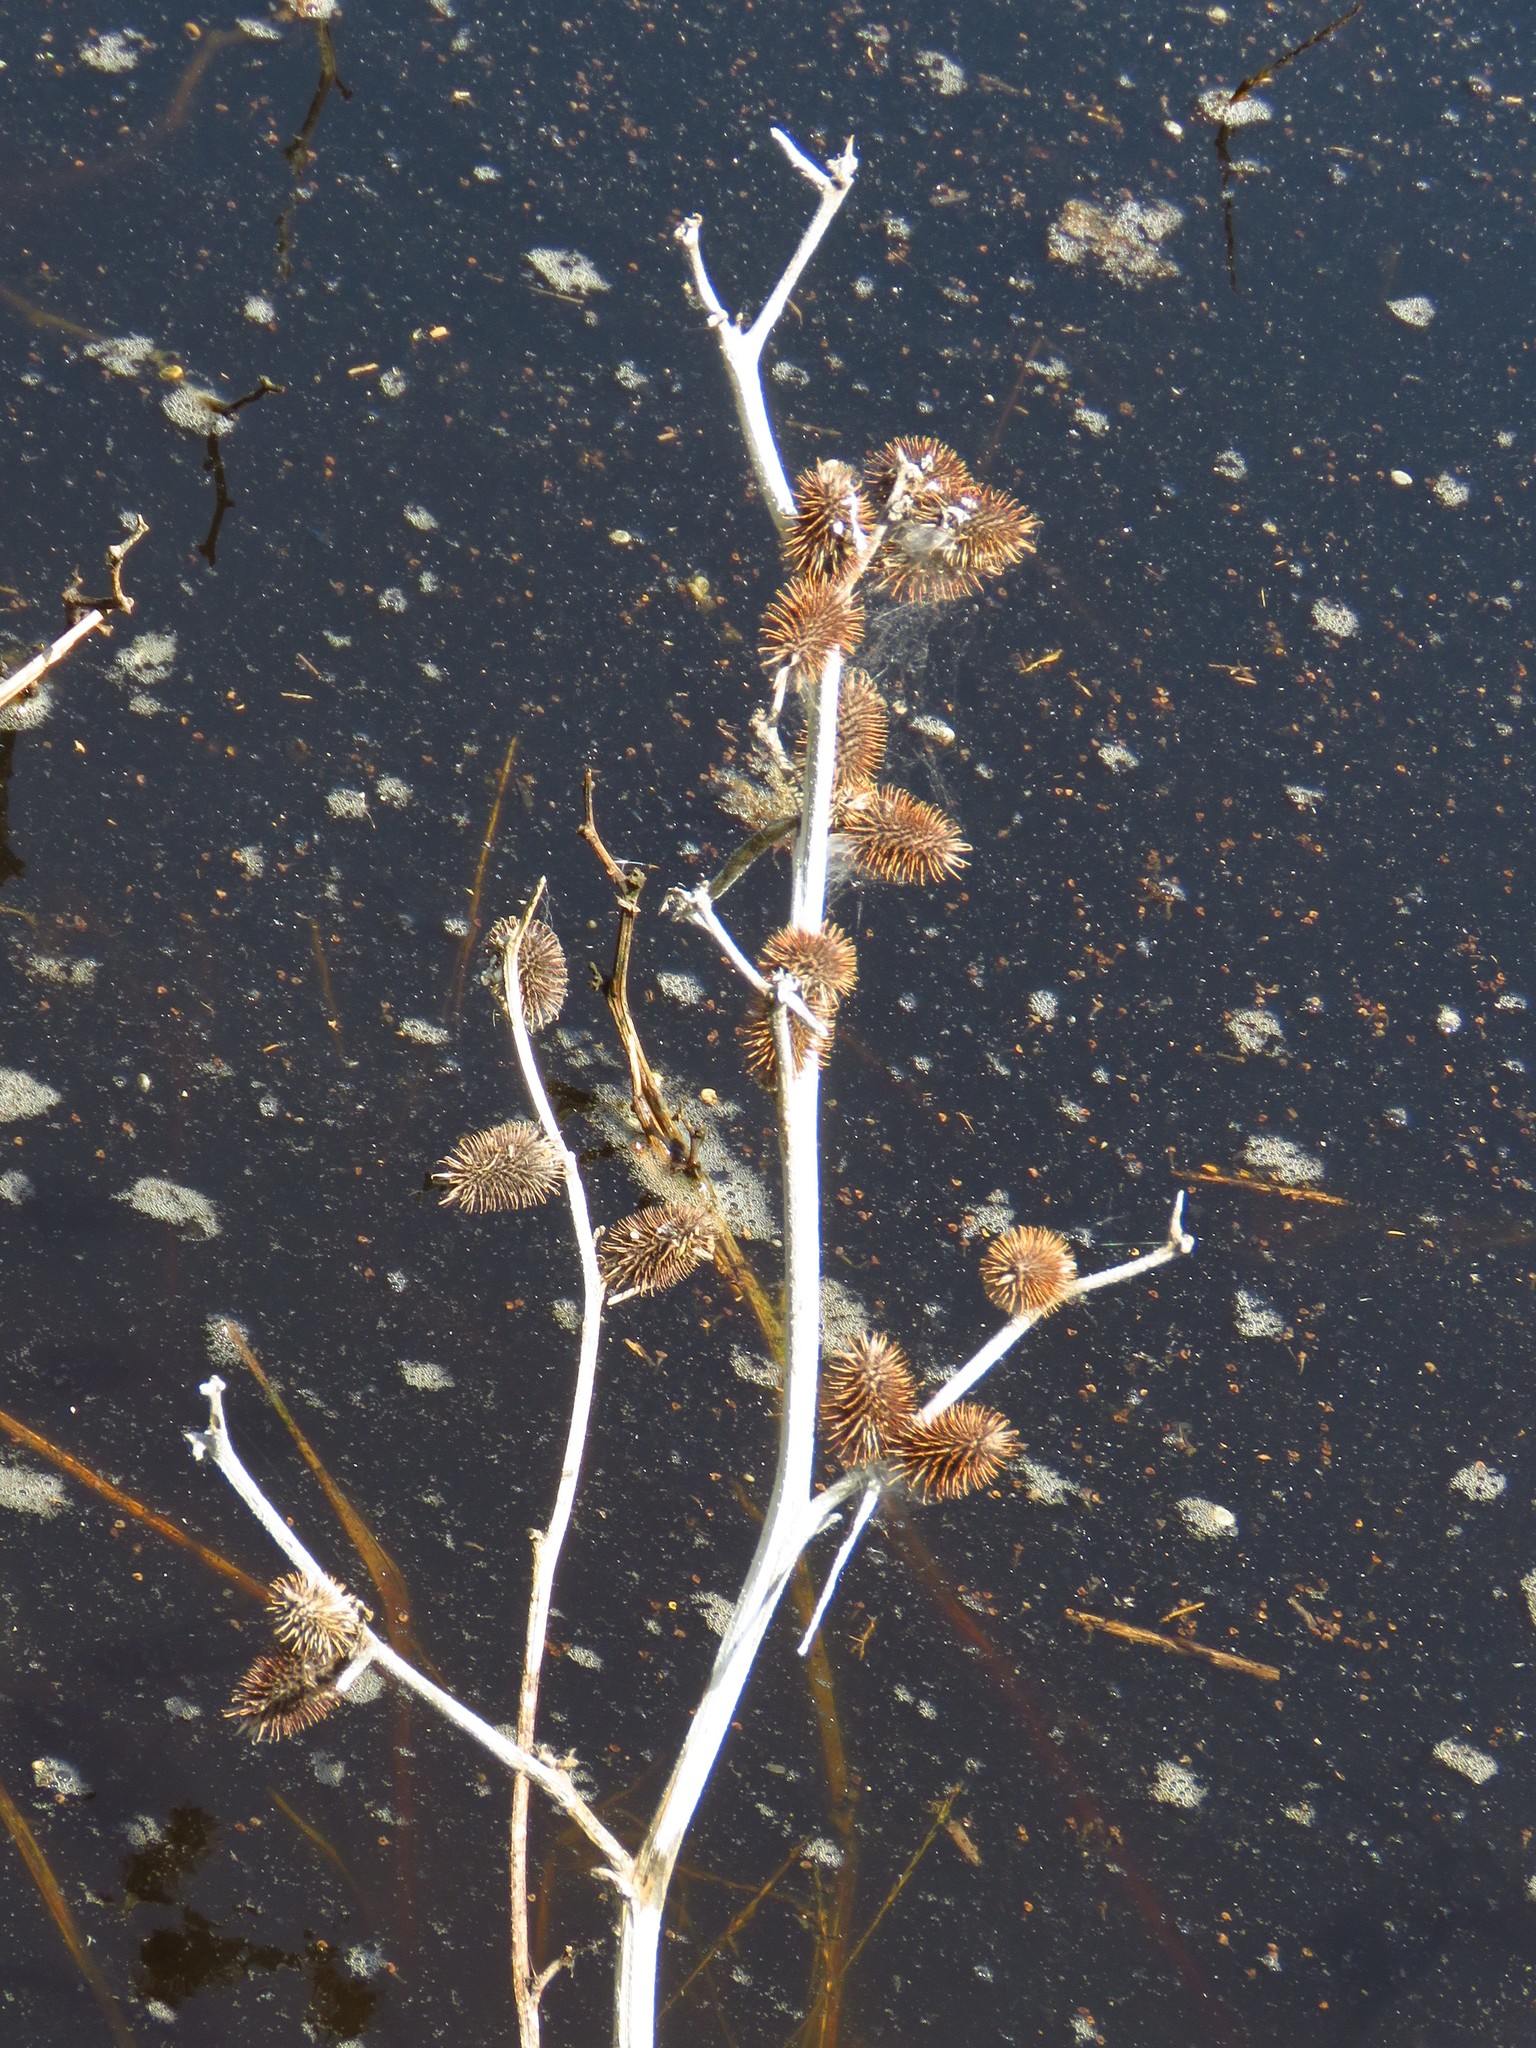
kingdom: Plantae
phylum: Tracheophyta
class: Magnoliopsida
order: Asterales
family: Asteraceae
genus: Xanthium
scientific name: Xanthium strumarium
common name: Rough cocklebur
